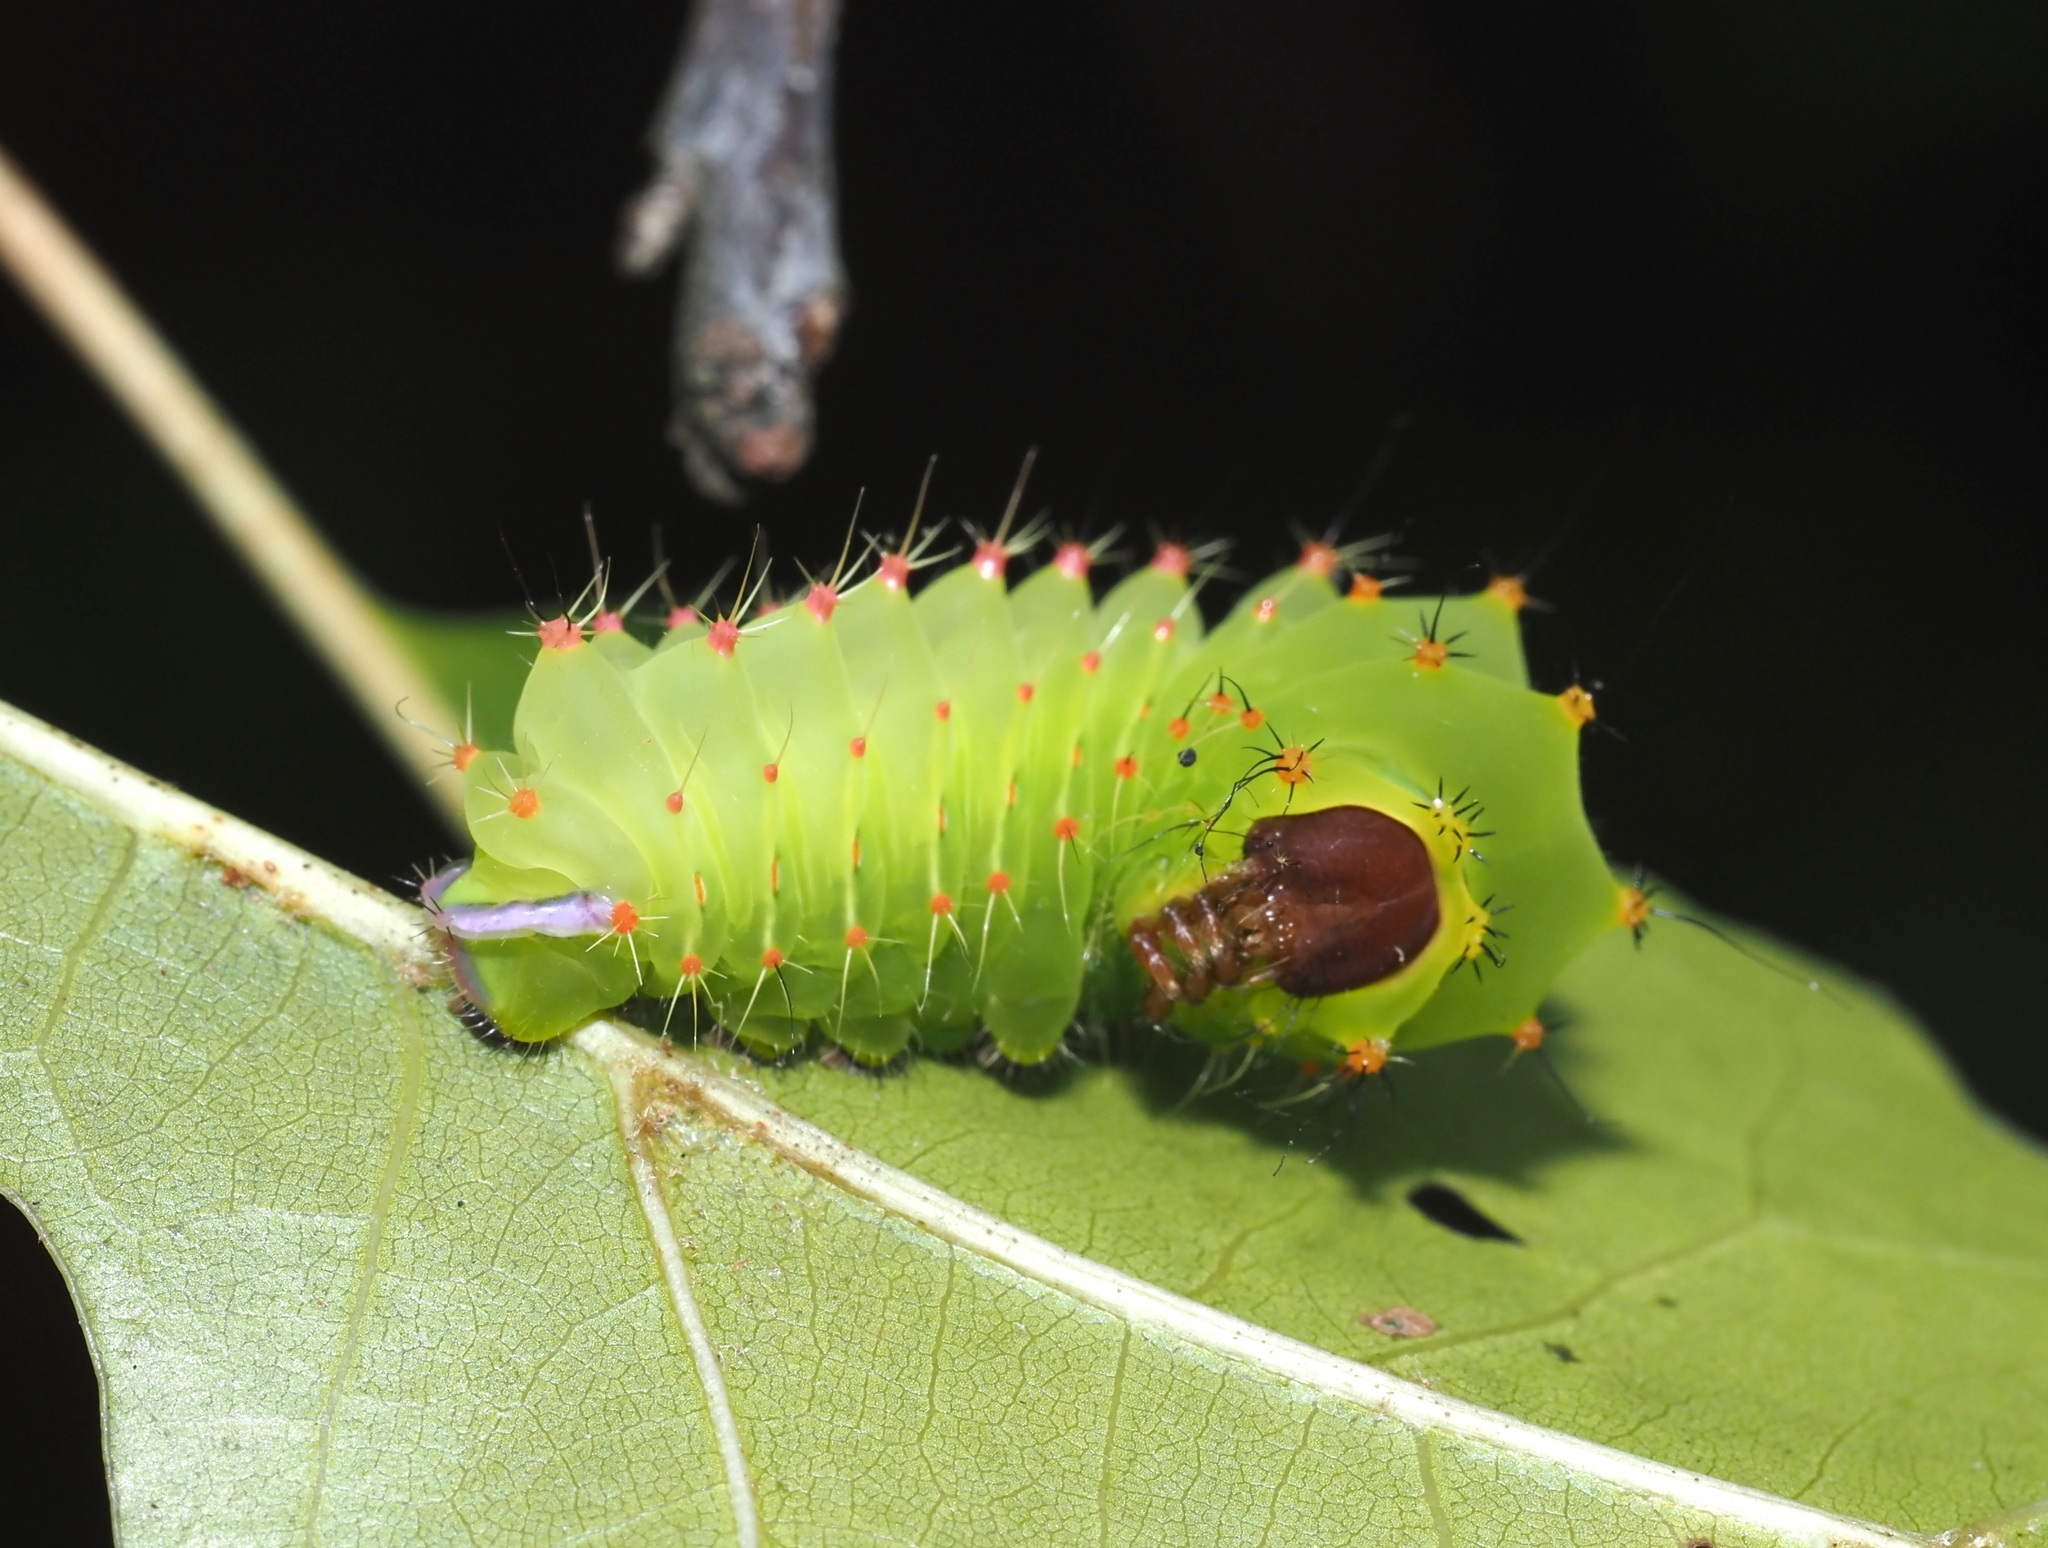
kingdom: Animalia
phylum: Arthropoda
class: Insecta
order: Lepidoptera
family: Saturniidae
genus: Antheraea
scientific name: Antheraea polyphemus
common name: Polyphemus moth
